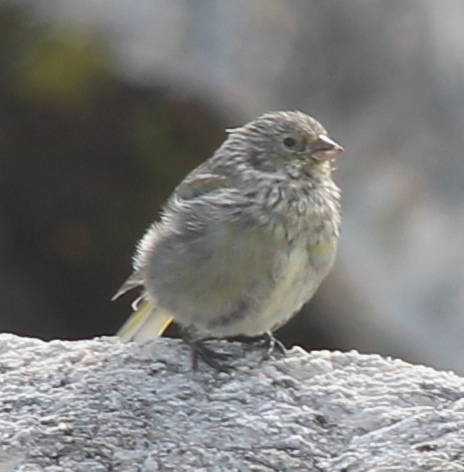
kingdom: Animalia
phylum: Chordata
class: Aves
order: Passeriformes
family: Thraupidae
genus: Melanodera
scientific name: Melanodera xanthogramma
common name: Yellow-bridled finch
